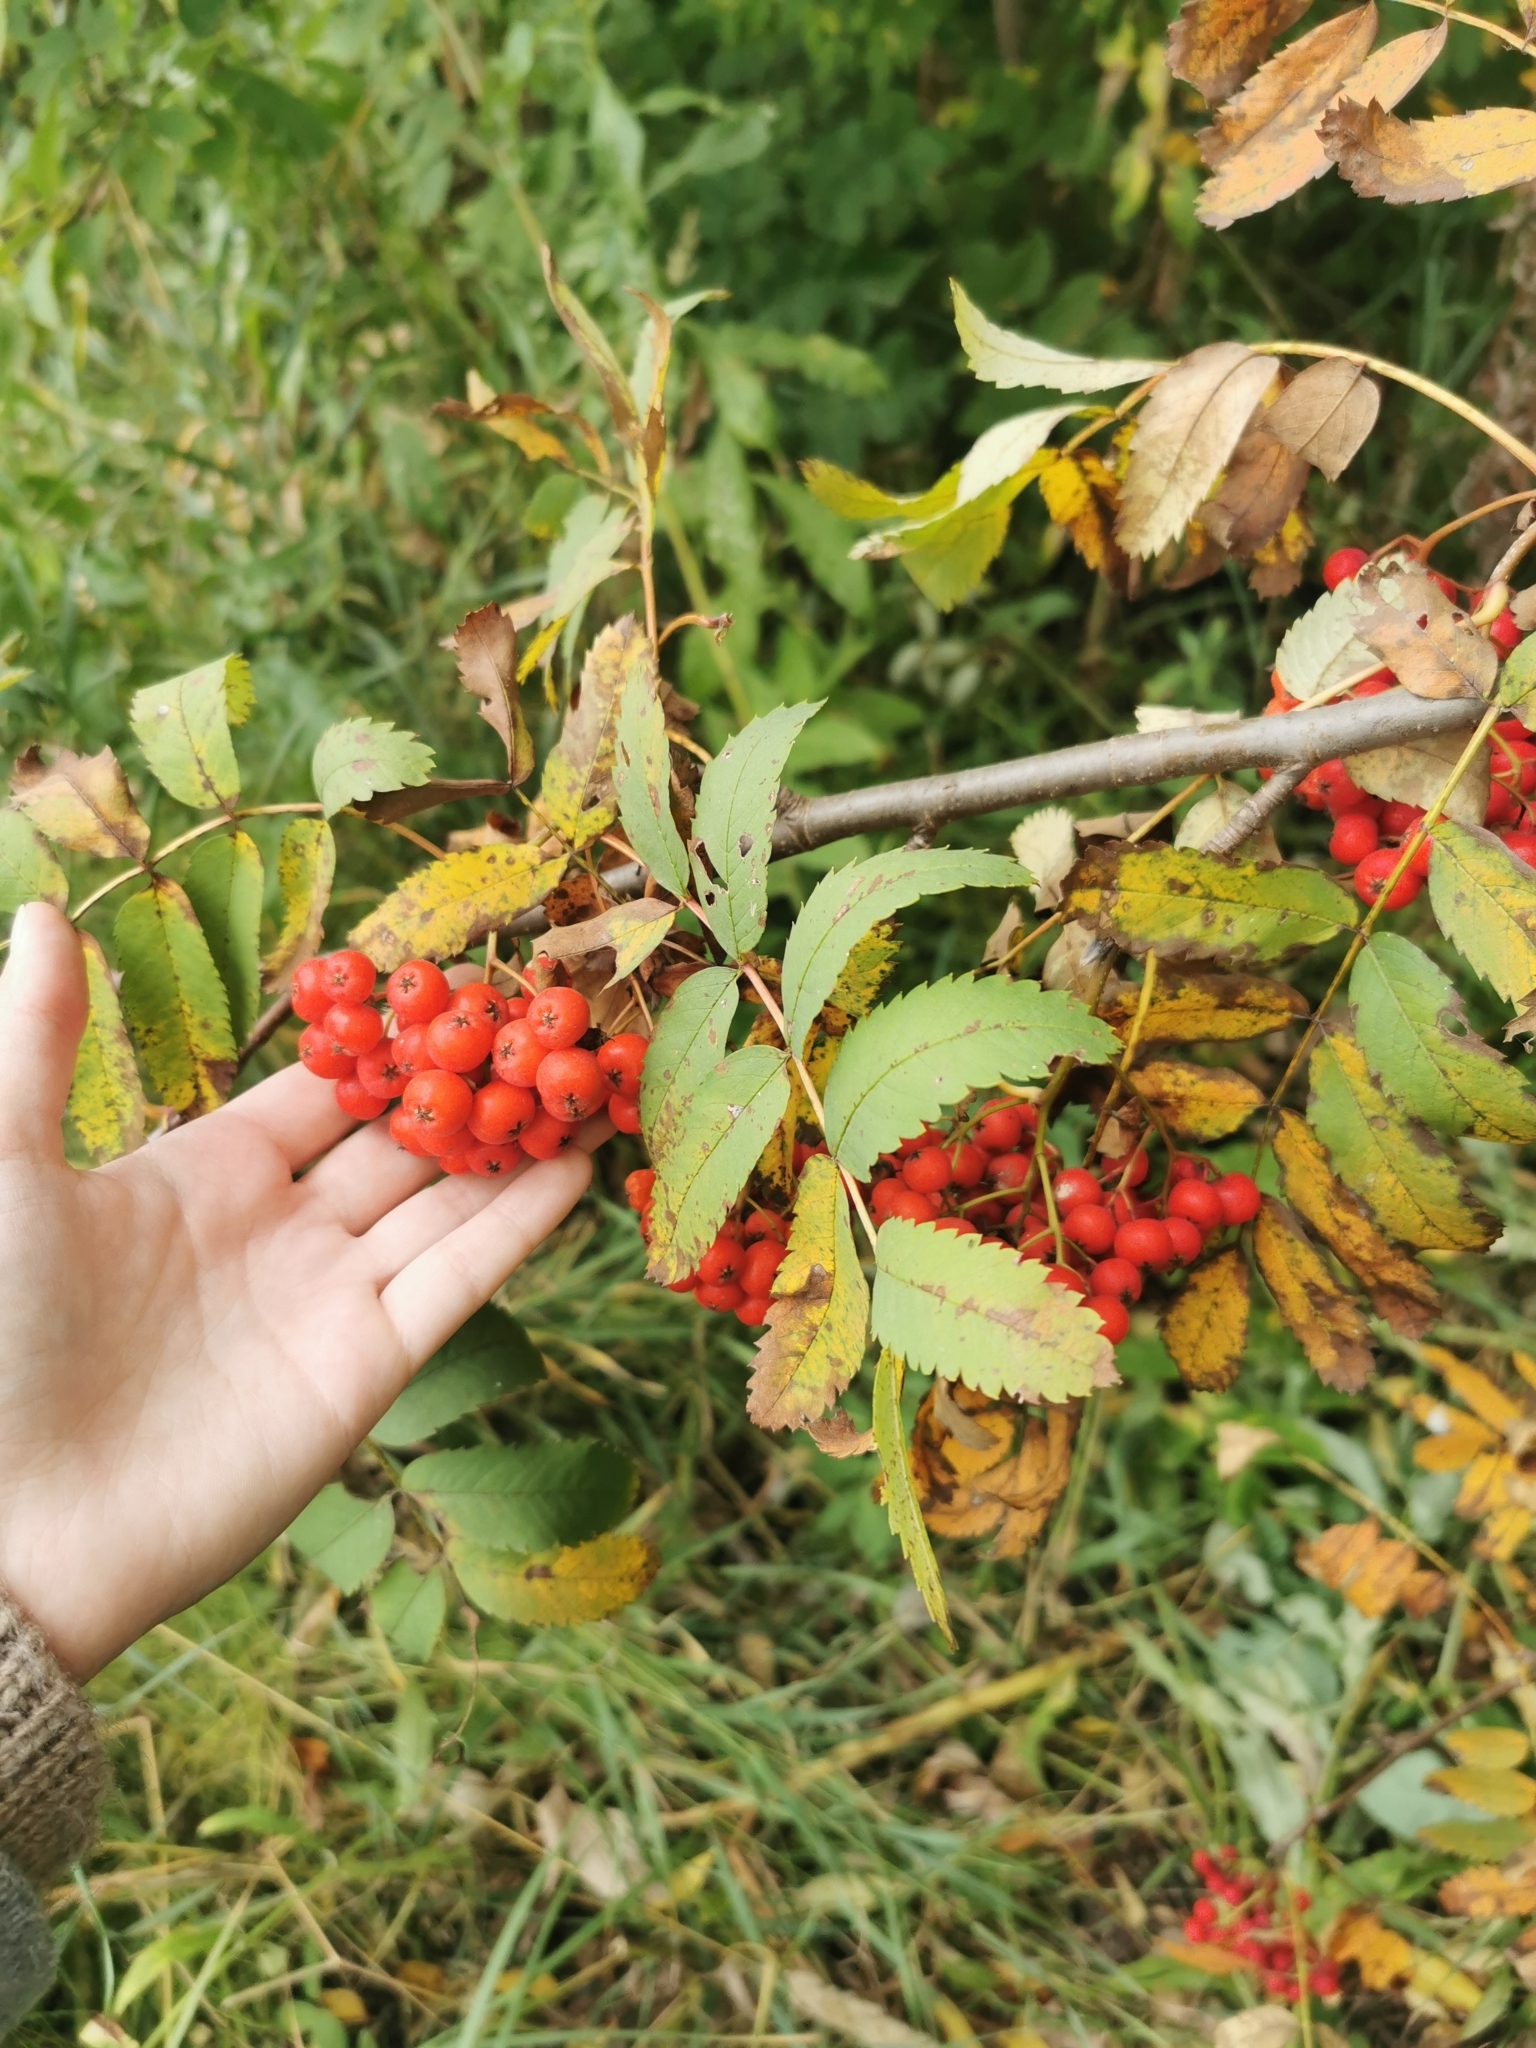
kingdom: Plantae
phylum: Tracheophyta
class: Magnoliopsida
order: Rosales
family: Rosaceae
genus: Sorbus
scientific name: Sorbus aucuparia
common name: Rowan
